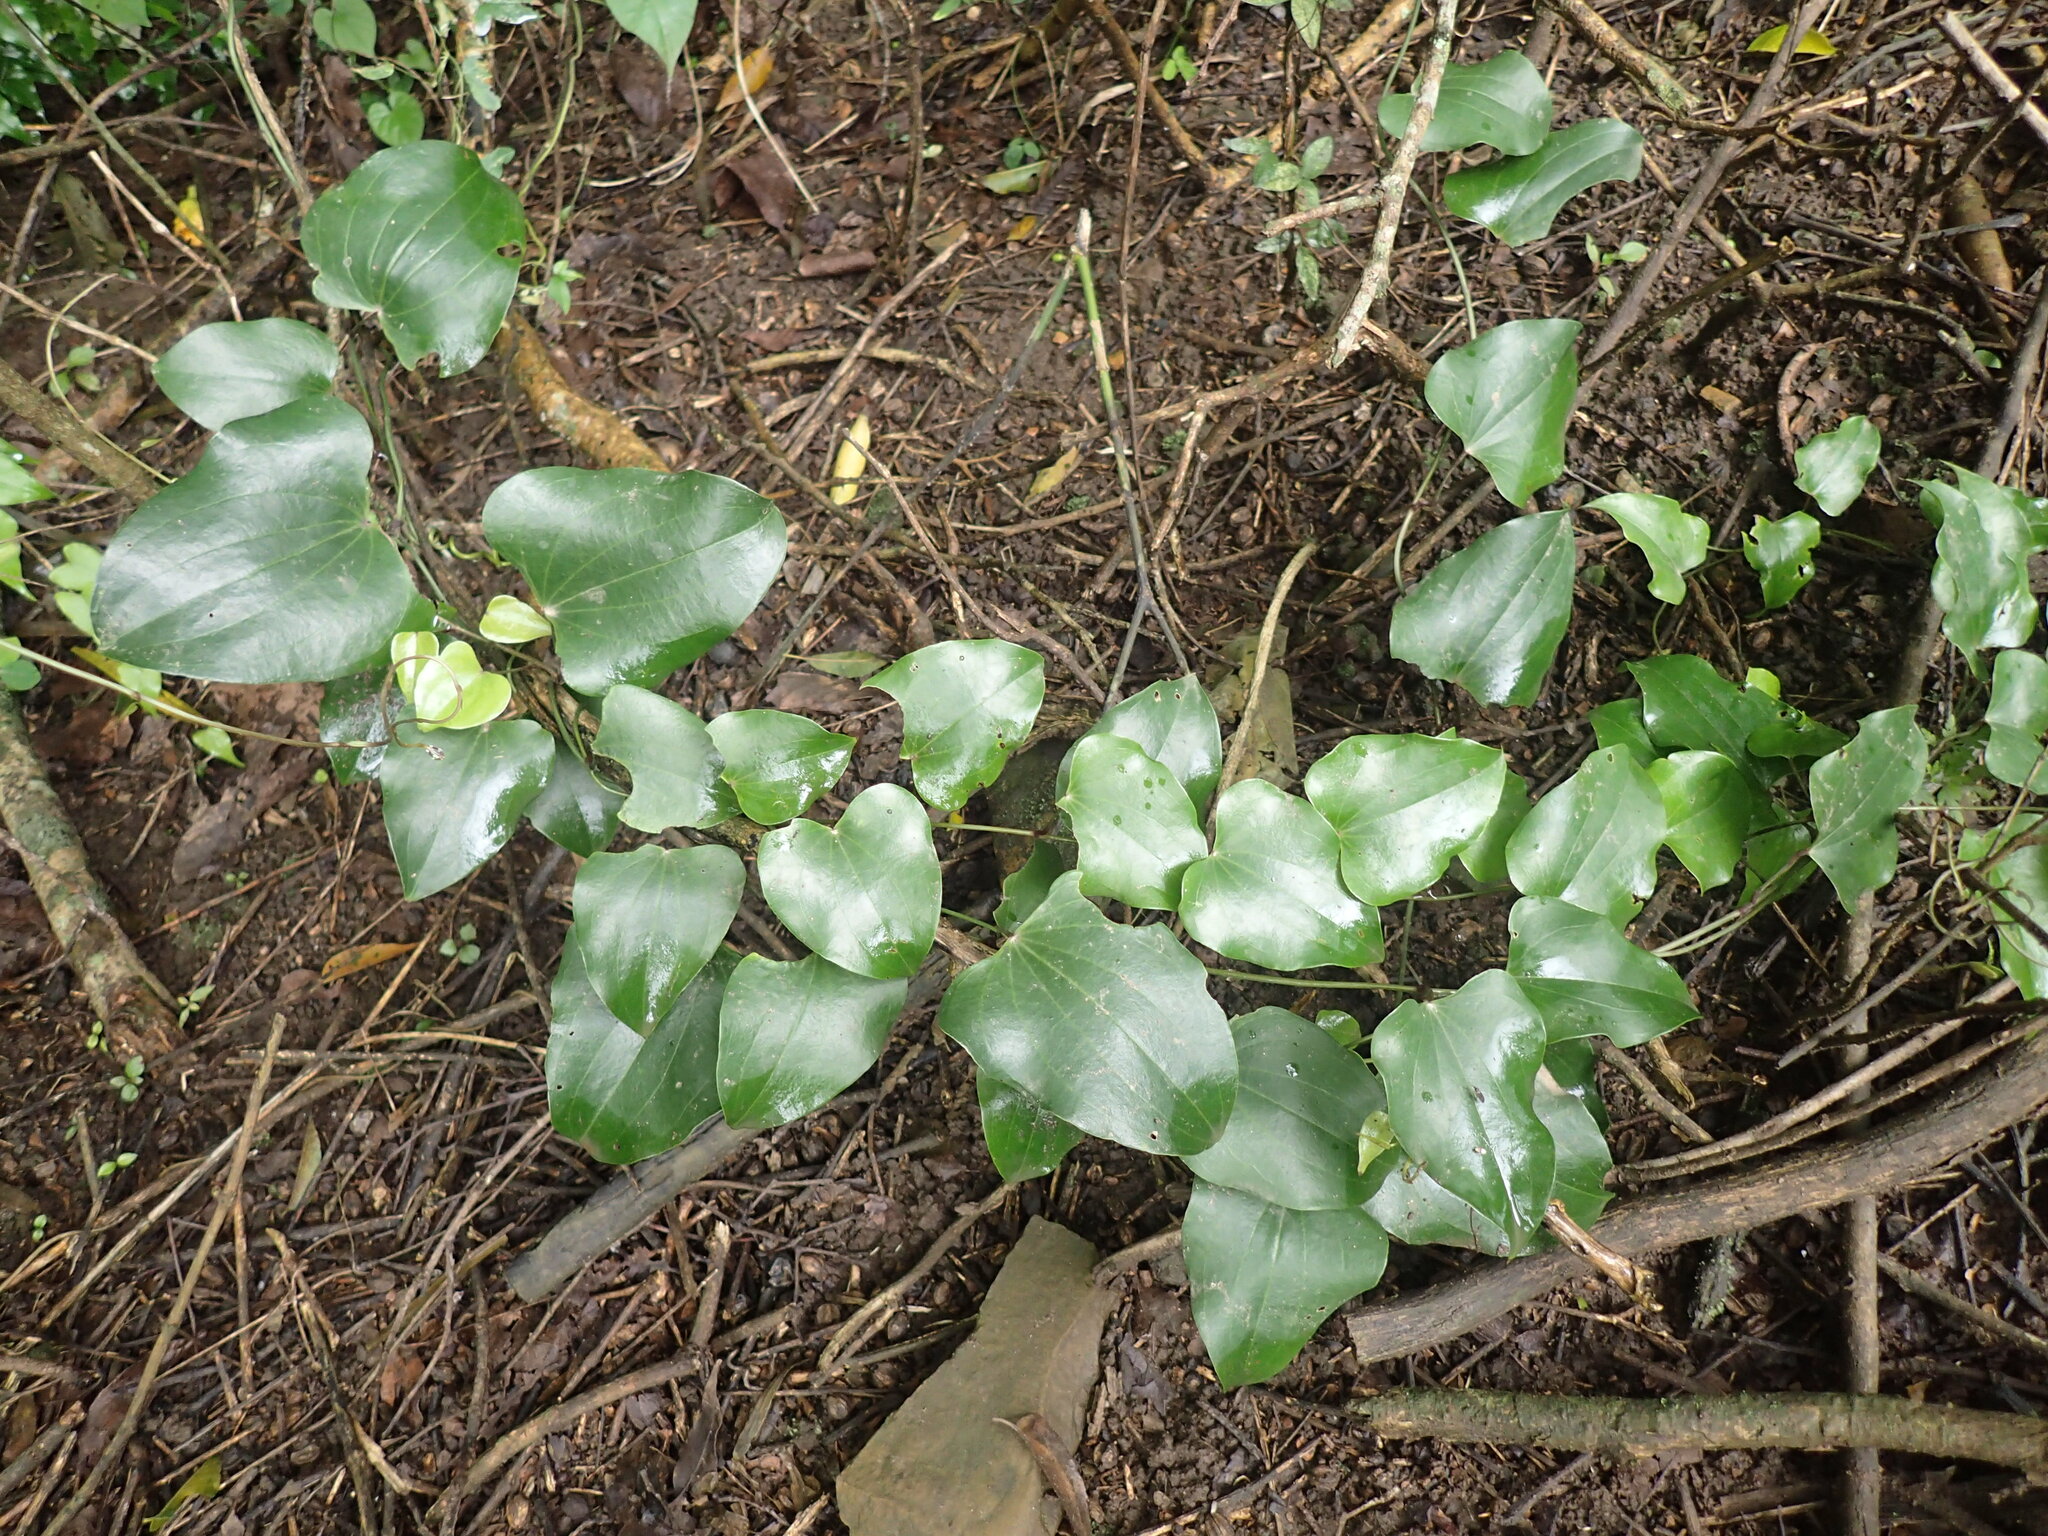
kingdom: Plantae
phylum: Tracheophyta
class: Liliopsida
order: Dioscoreales
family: Dioscoreaceae
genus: Dioscorea
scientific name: Dioscorea cotinifolia
